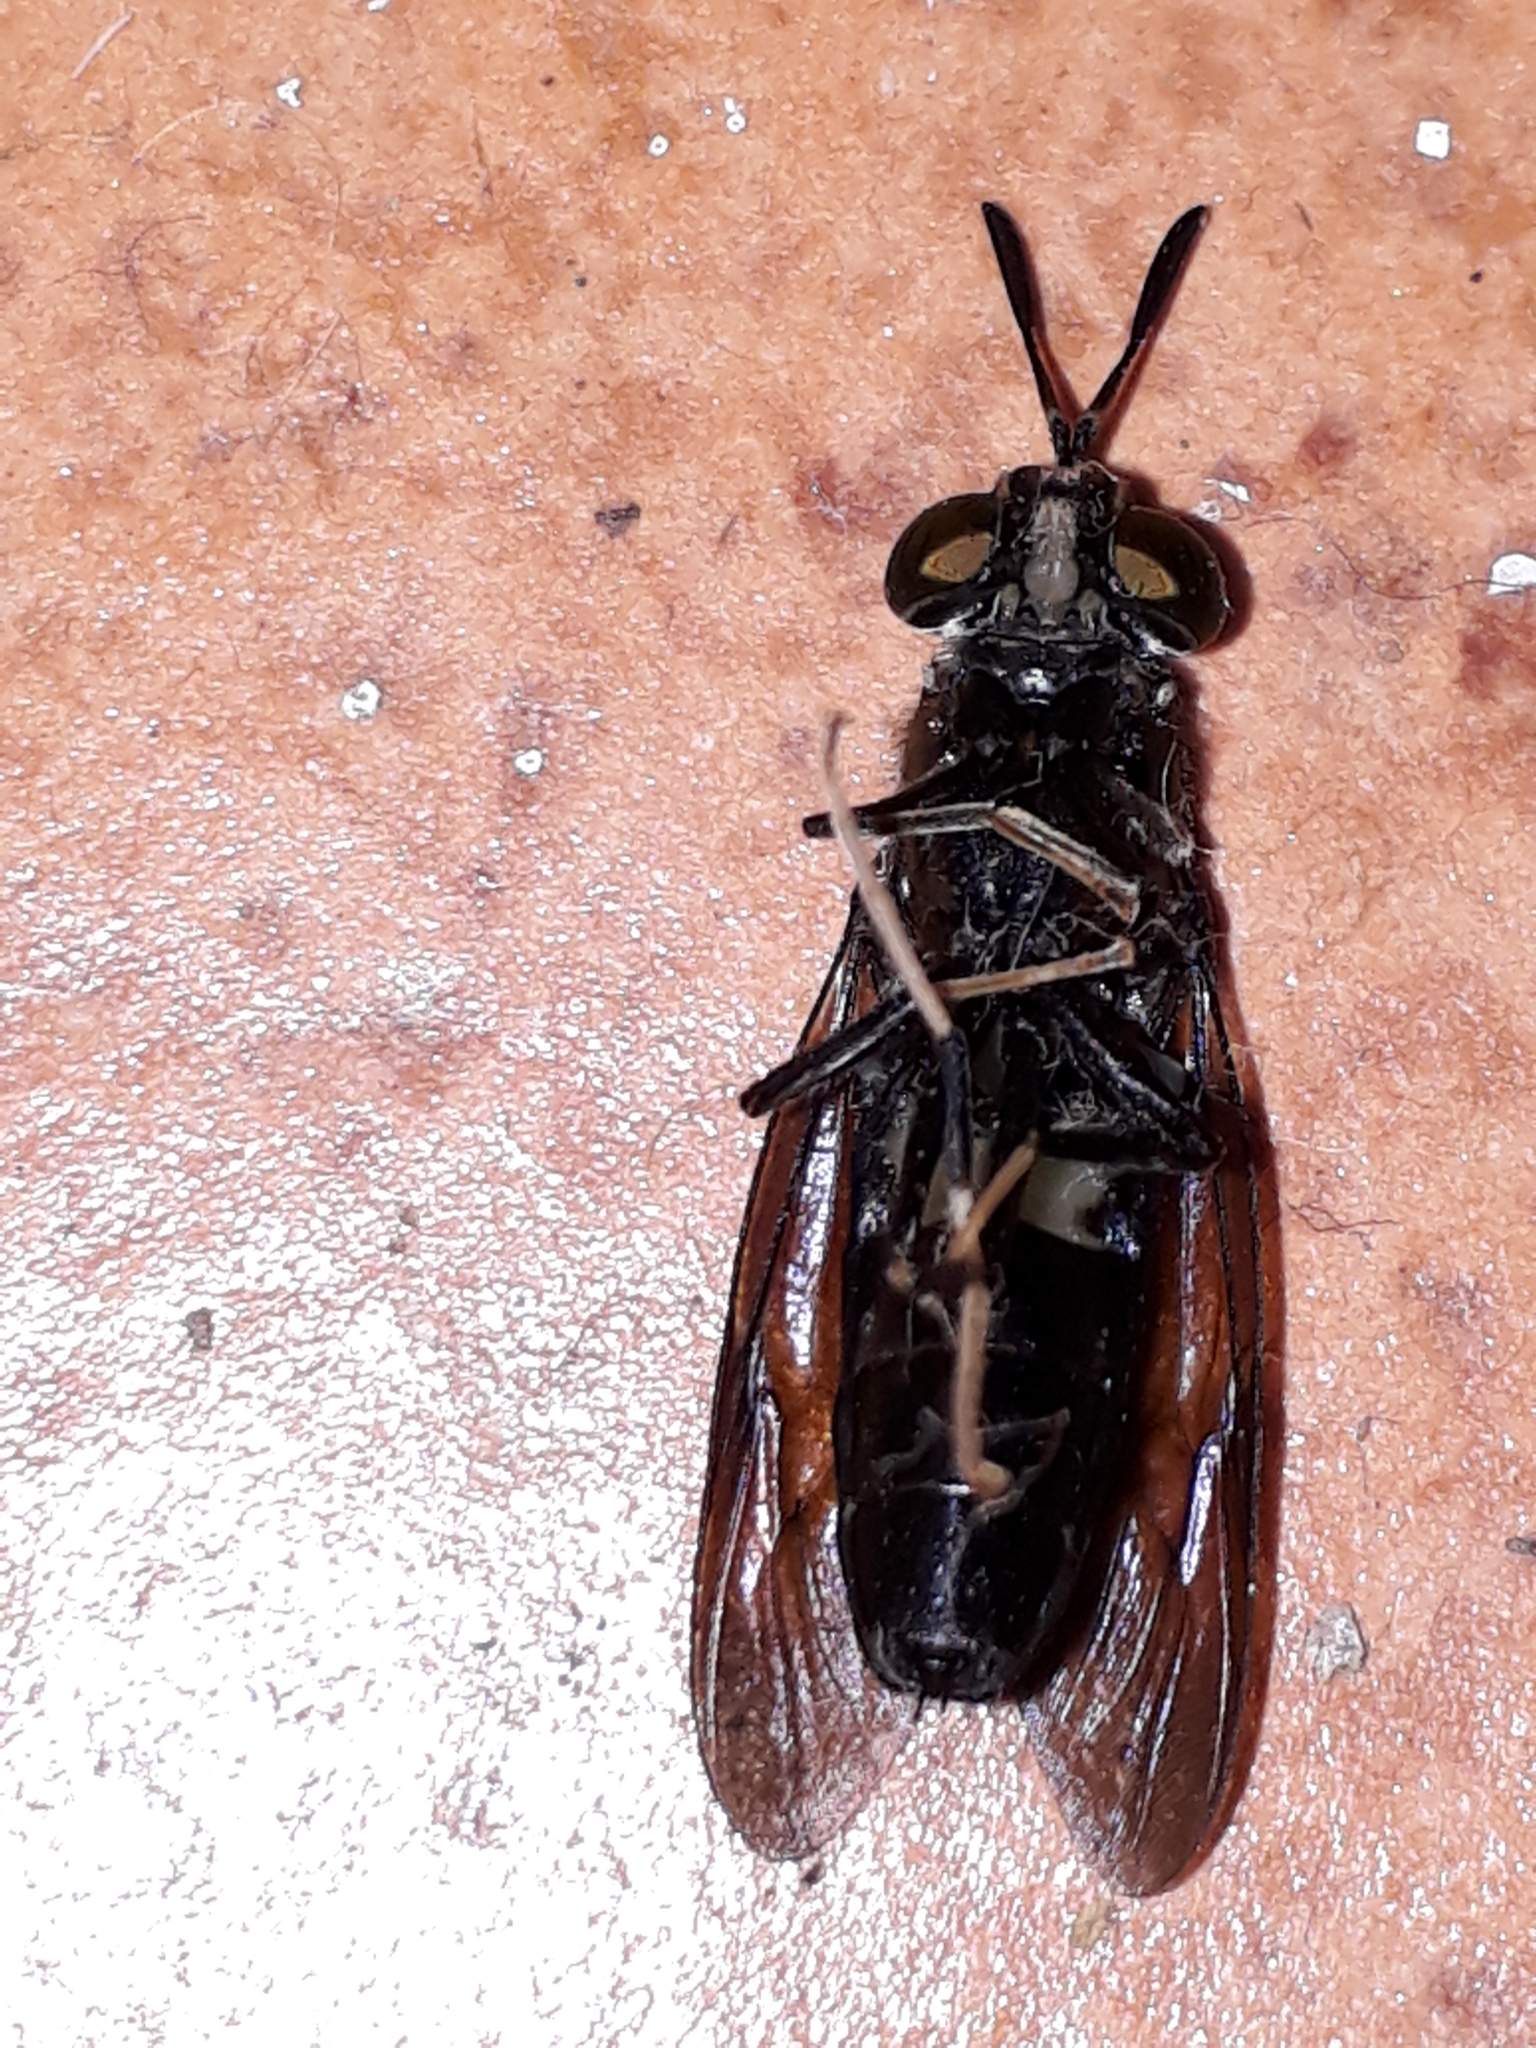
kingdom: Animalia
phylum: Arthropoda
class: Insecta
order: Diptera
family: Stratiomyidae
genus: Hermetia
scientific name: Hermetia illucens
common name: Black soldier fly
